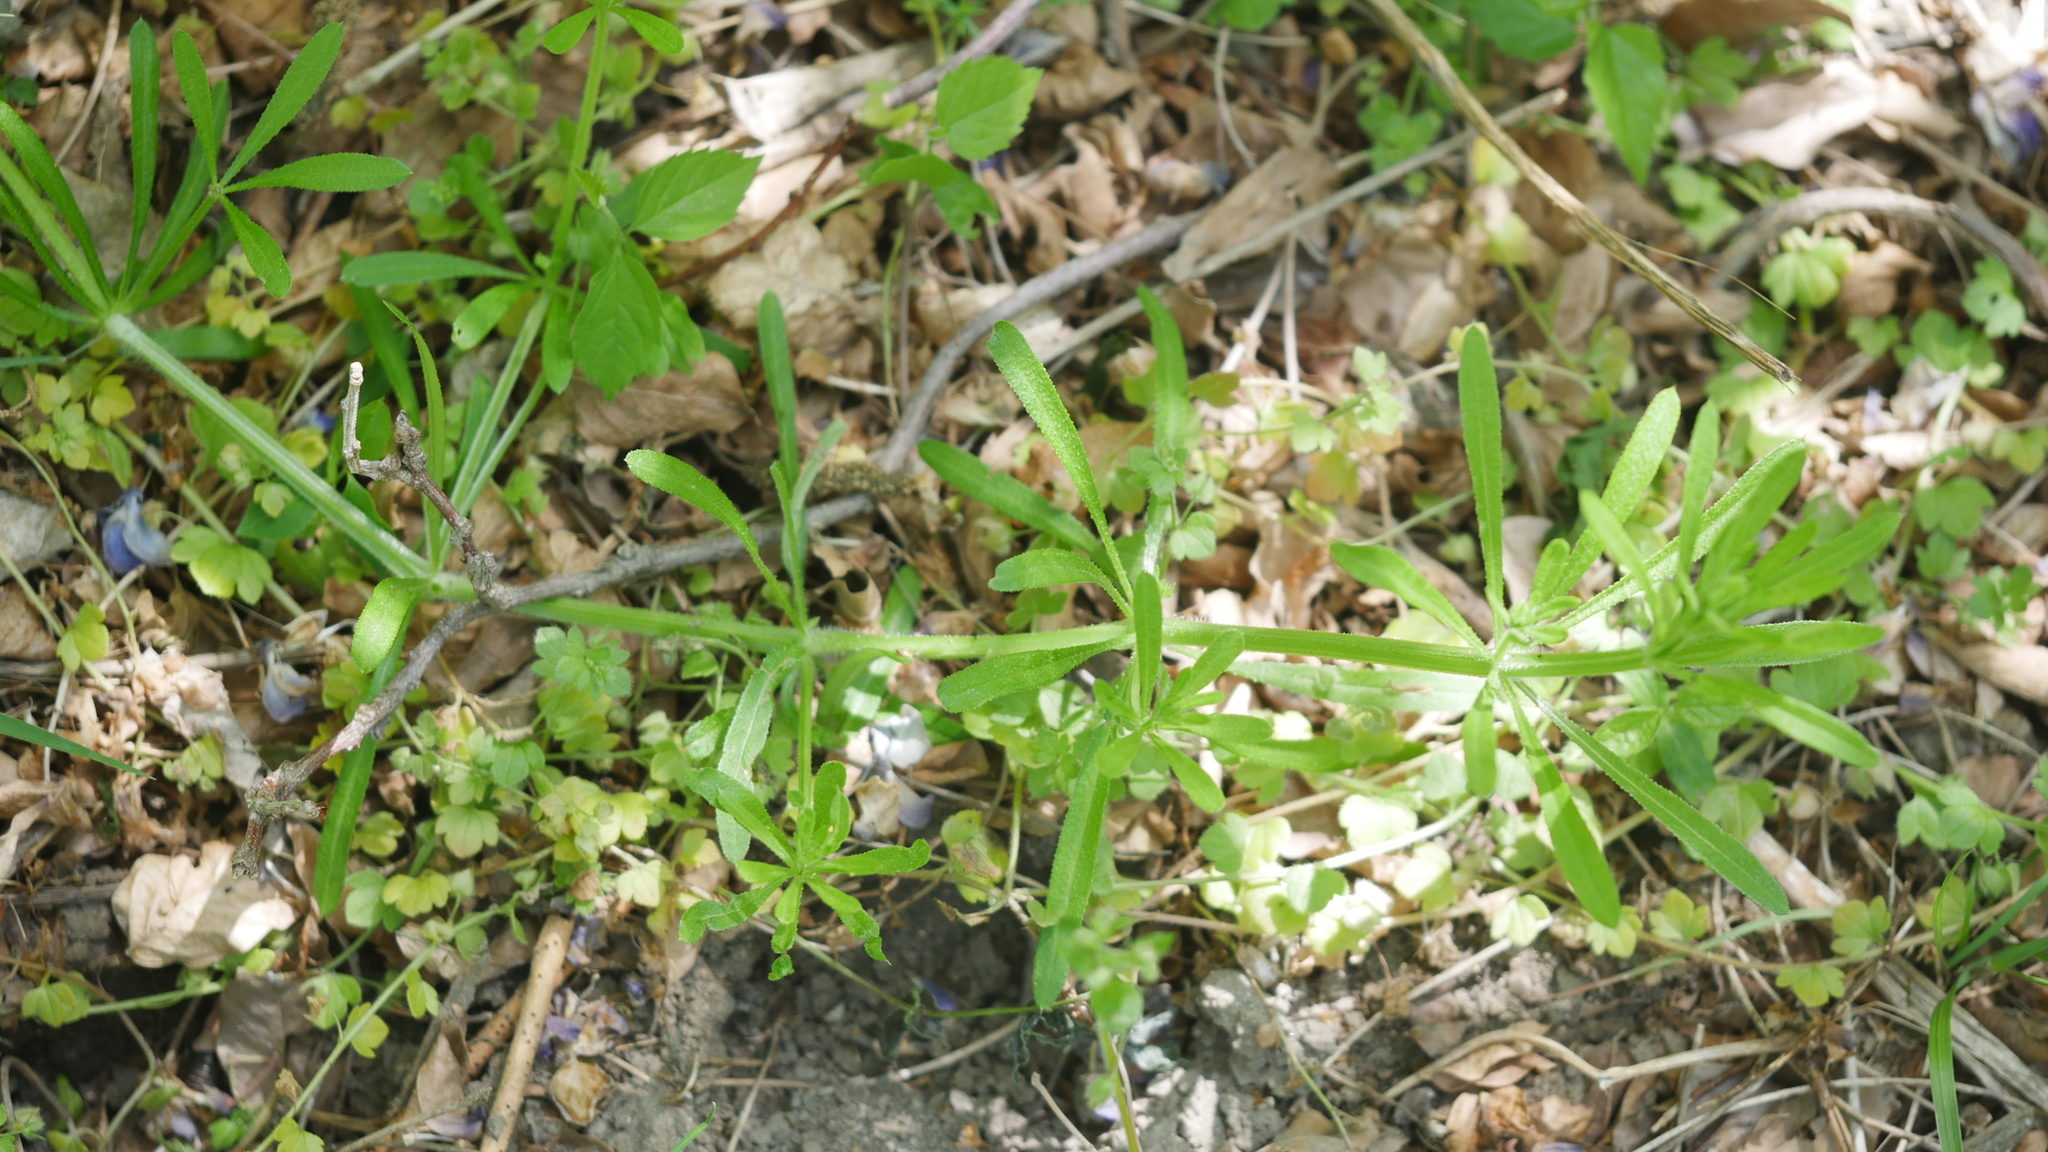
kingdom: Plantae
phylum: Tracheophyta
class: Magnoliopsida
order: Gentianales
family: Rubiaceae
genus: Galium
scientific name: Galium aparine
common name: Cleavers
